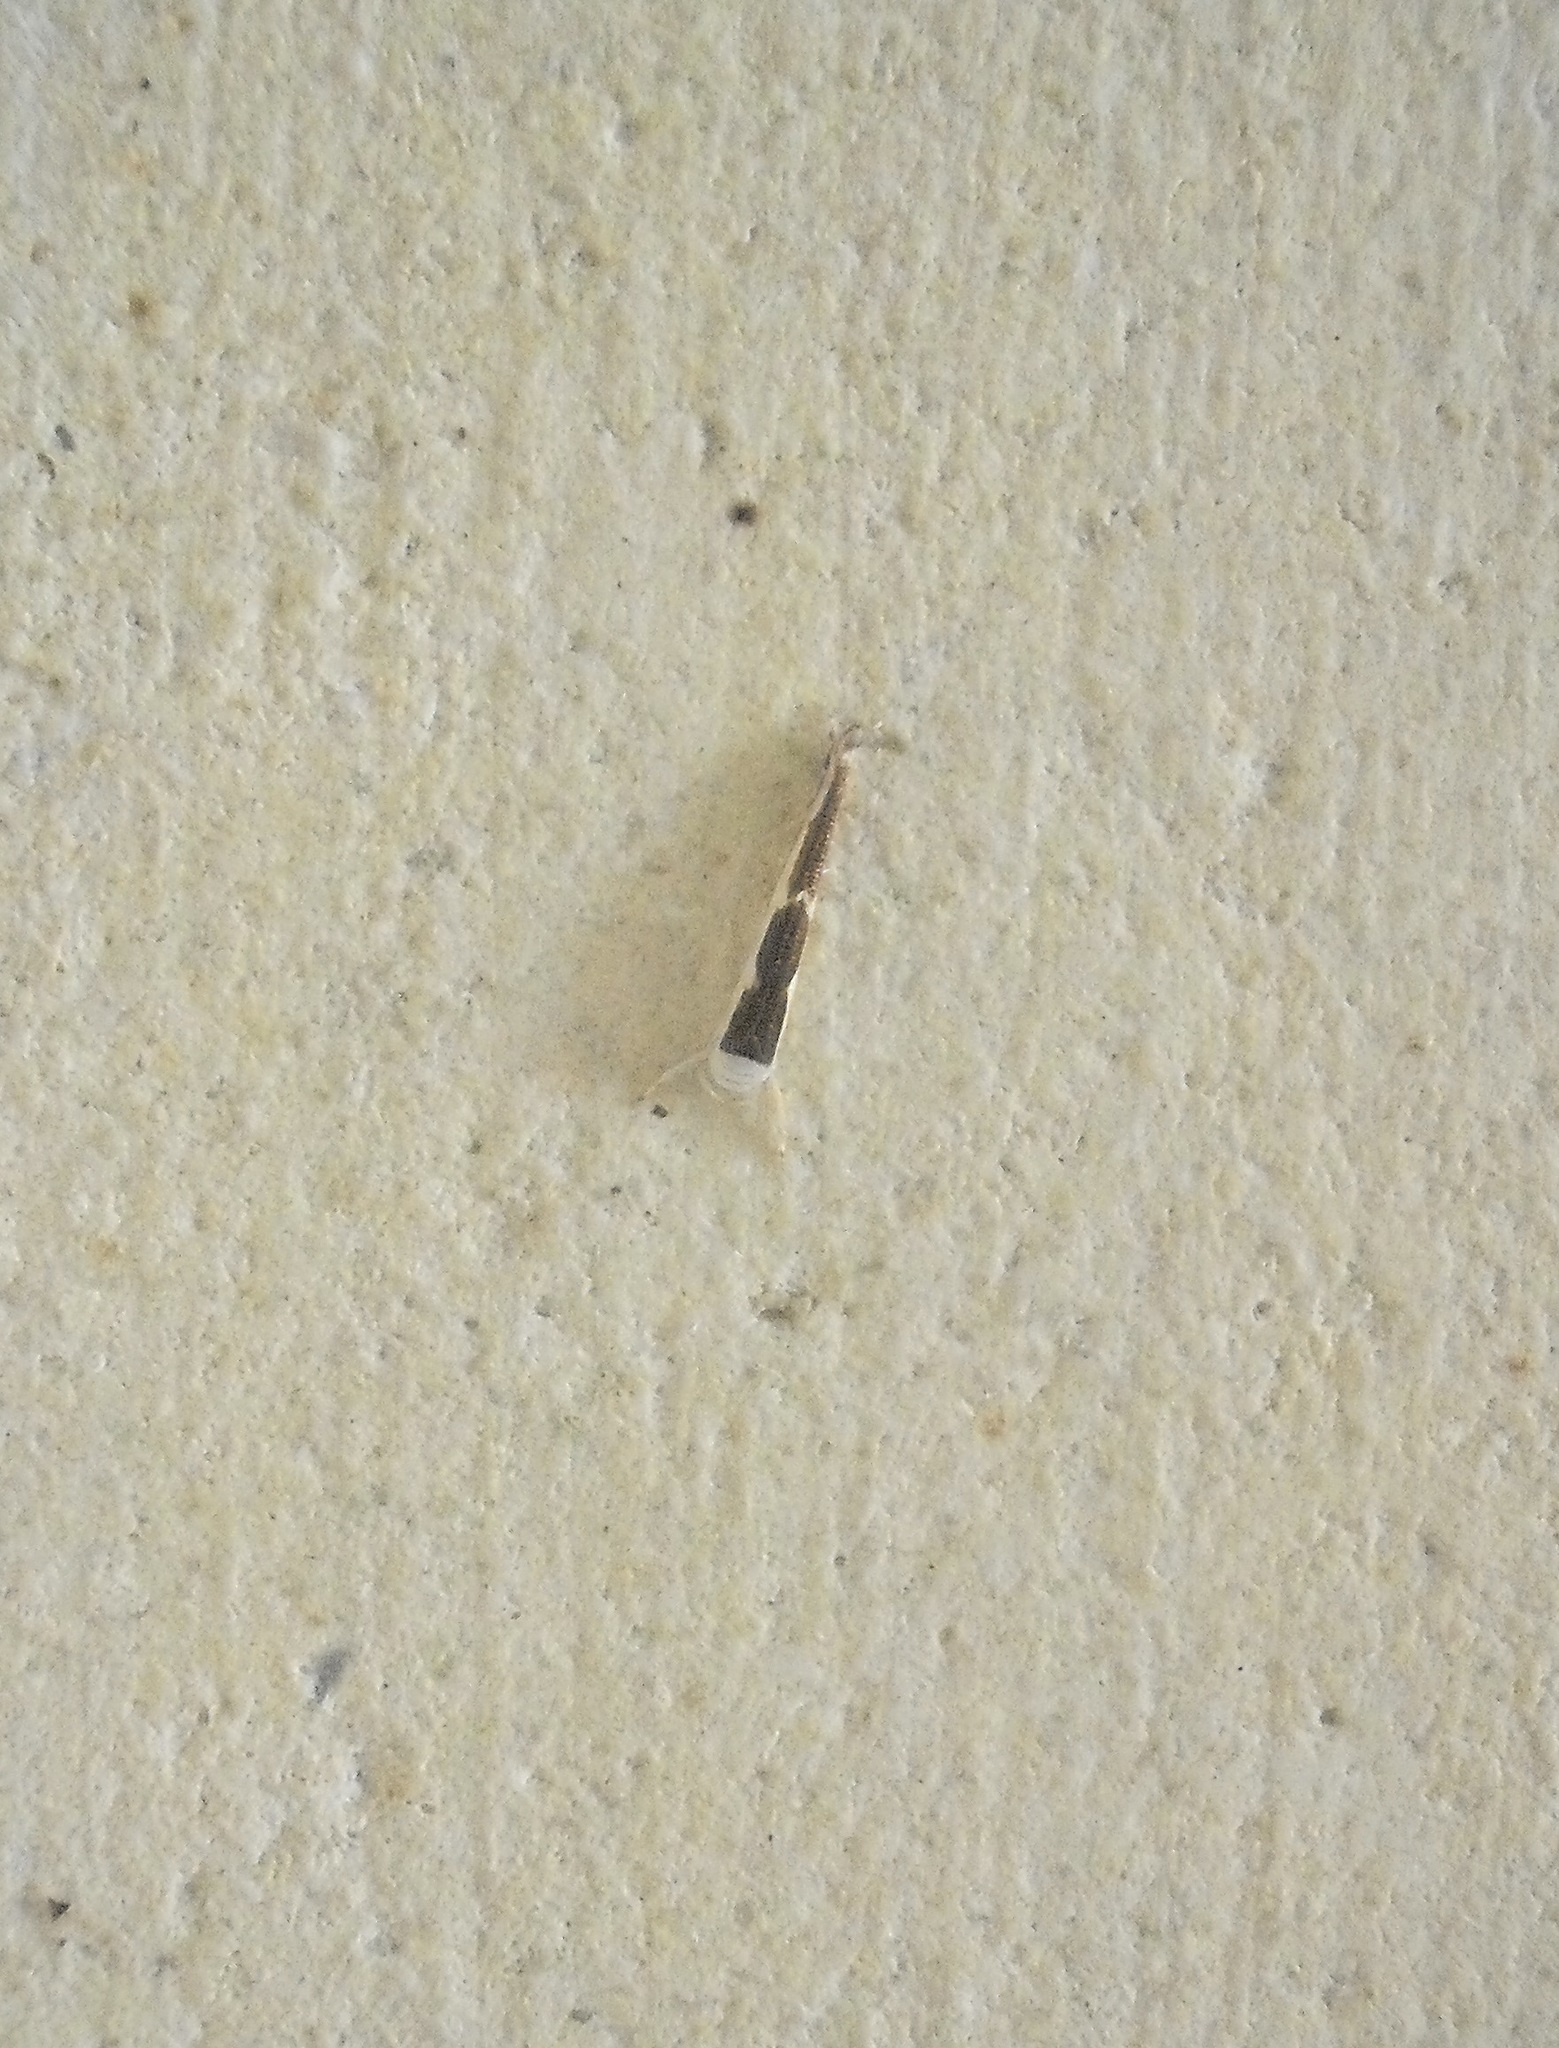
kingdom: Animalia
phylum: Arthropoda
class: Insecta
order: Lepidoptera
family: Roeslerstammiidae
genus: Vanicela
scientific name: Vanicela disjunctella
